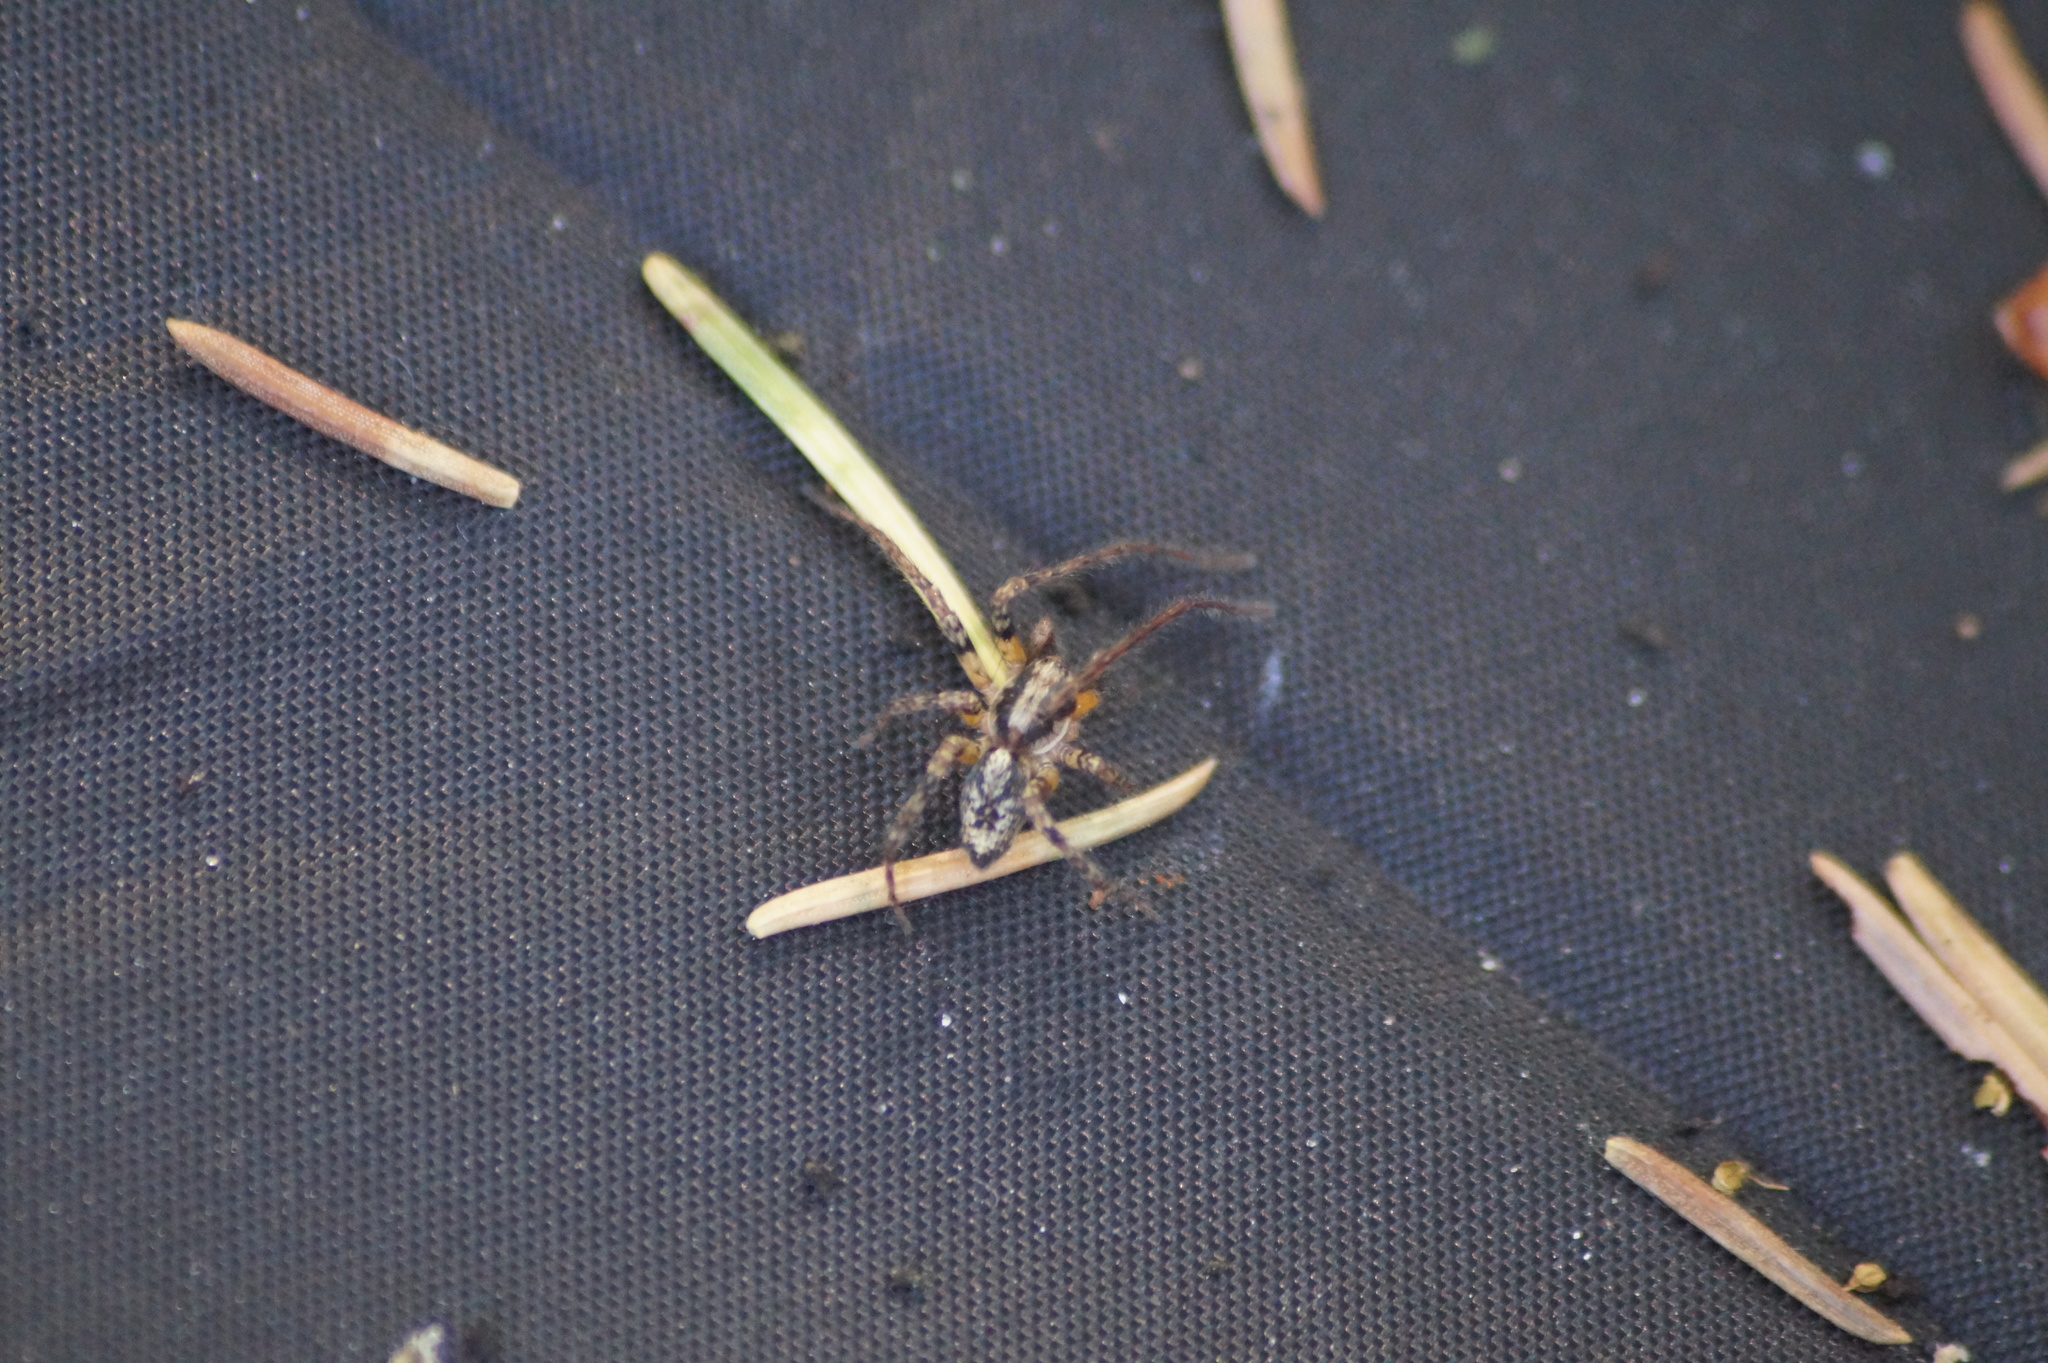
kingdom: Animalia
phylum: Arthropoda
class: Arachnida
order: Araneae
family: Anyphaenidae
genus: Anyphaena
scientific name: Anyphaena accentuata
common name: Buzzing spider
